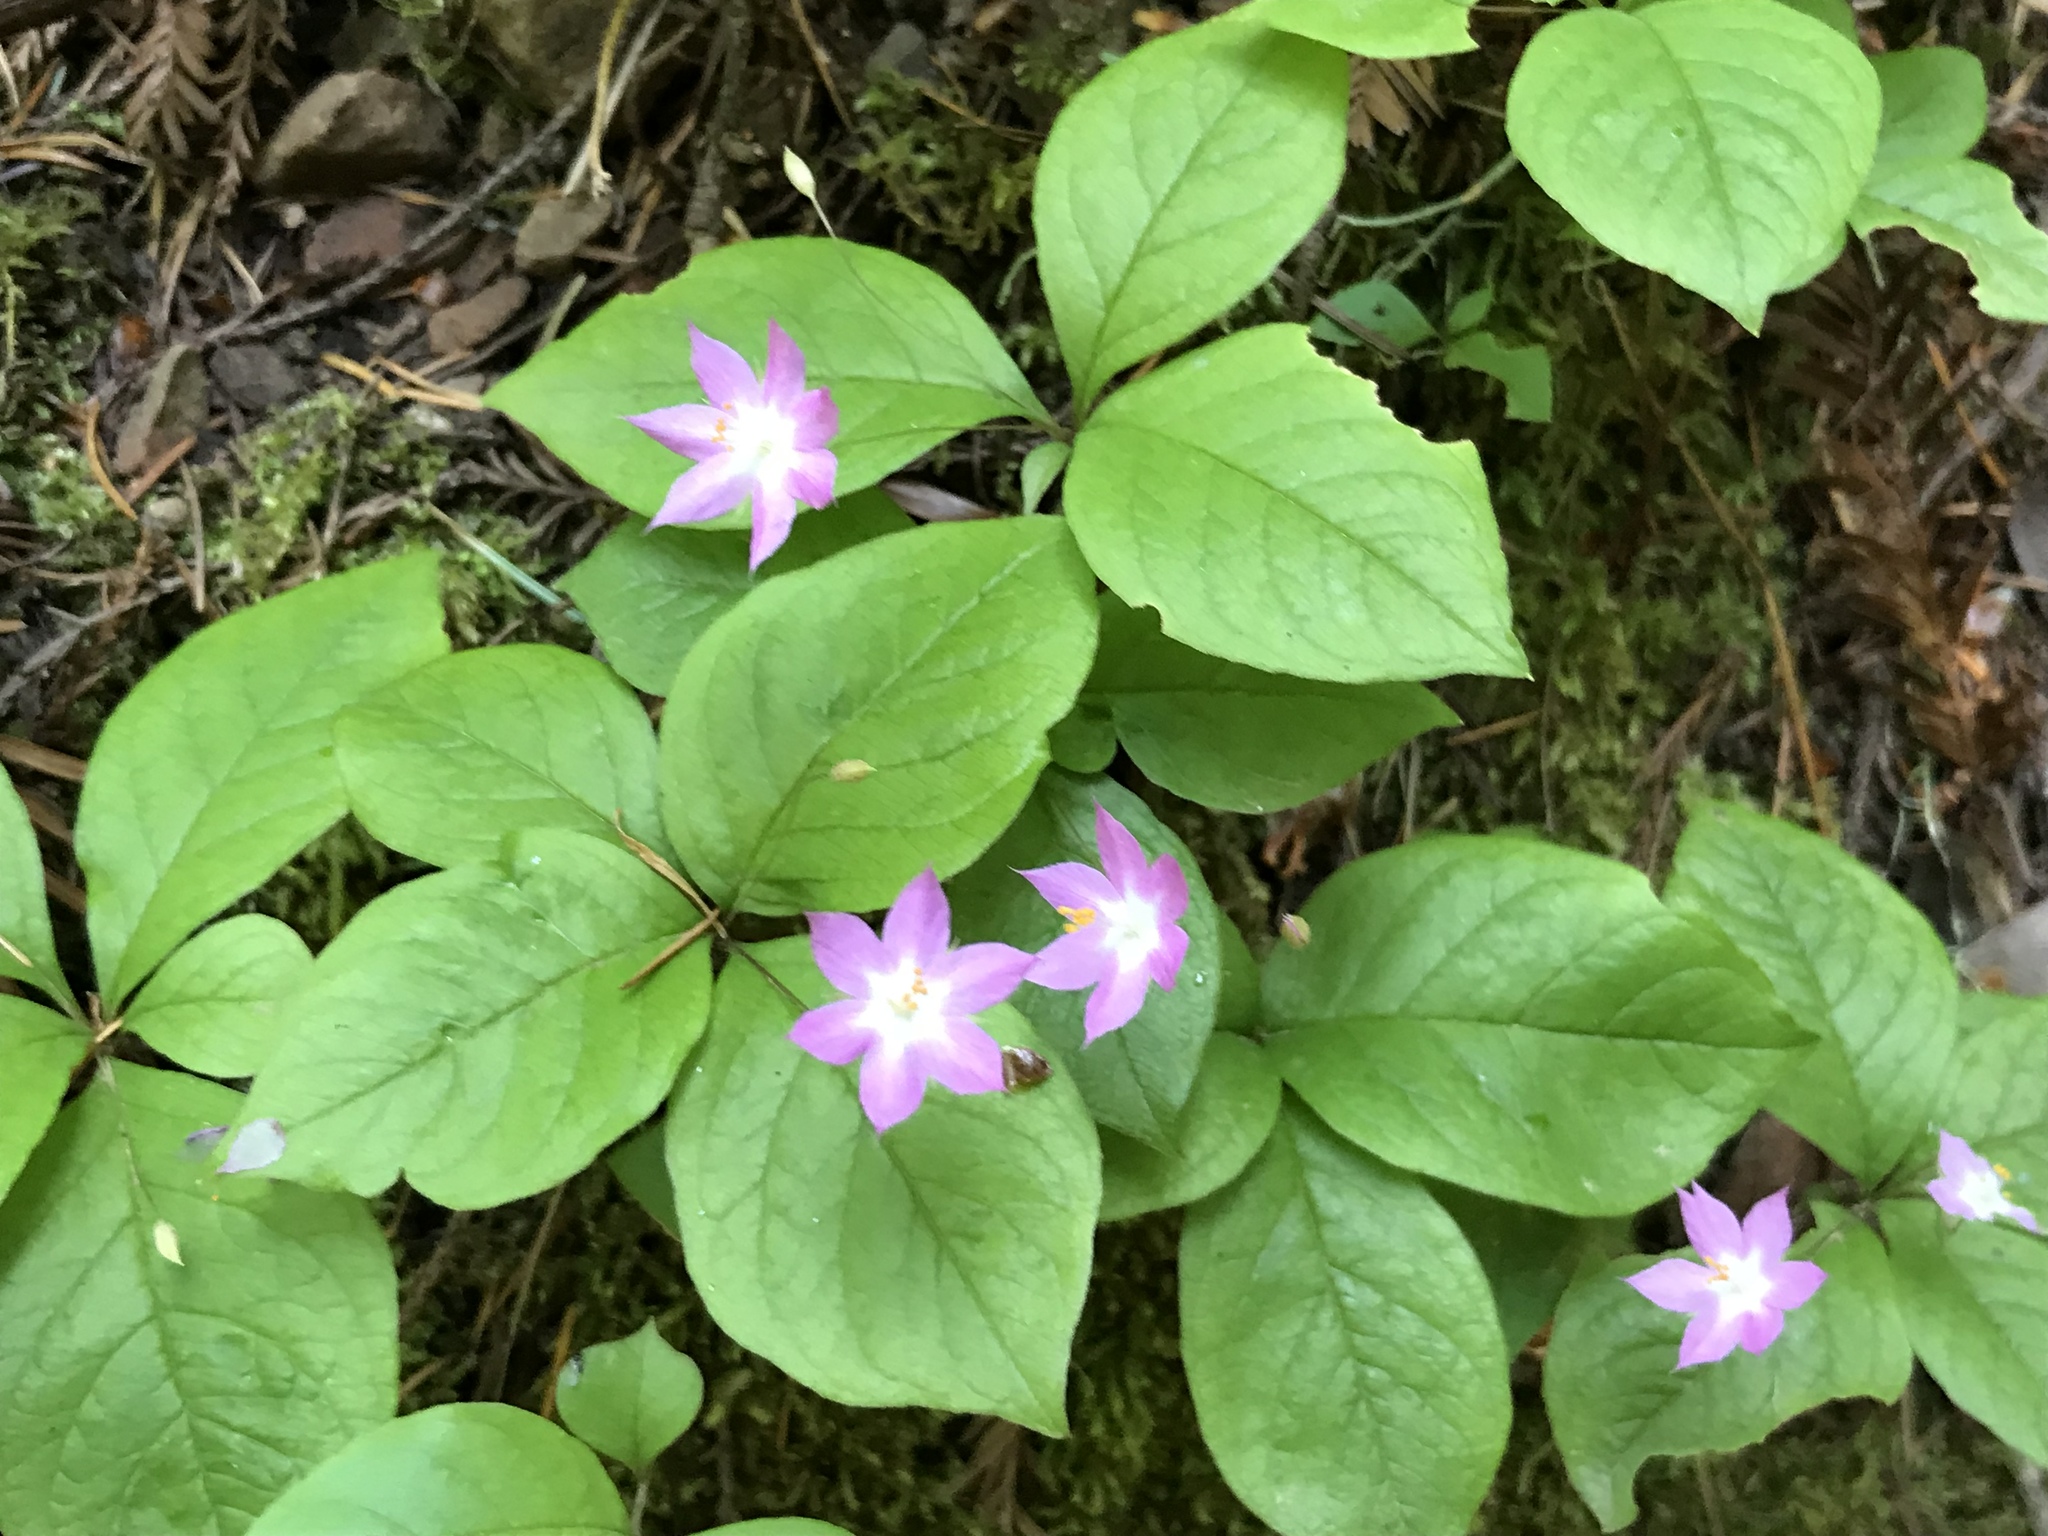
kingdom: Plantae
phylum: Tracheophyta
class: Magnoliopsida
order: Ericales
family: Primulaceae
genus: Lysimachia
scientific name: Lysimachia latifolia
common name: Pacific starflower
